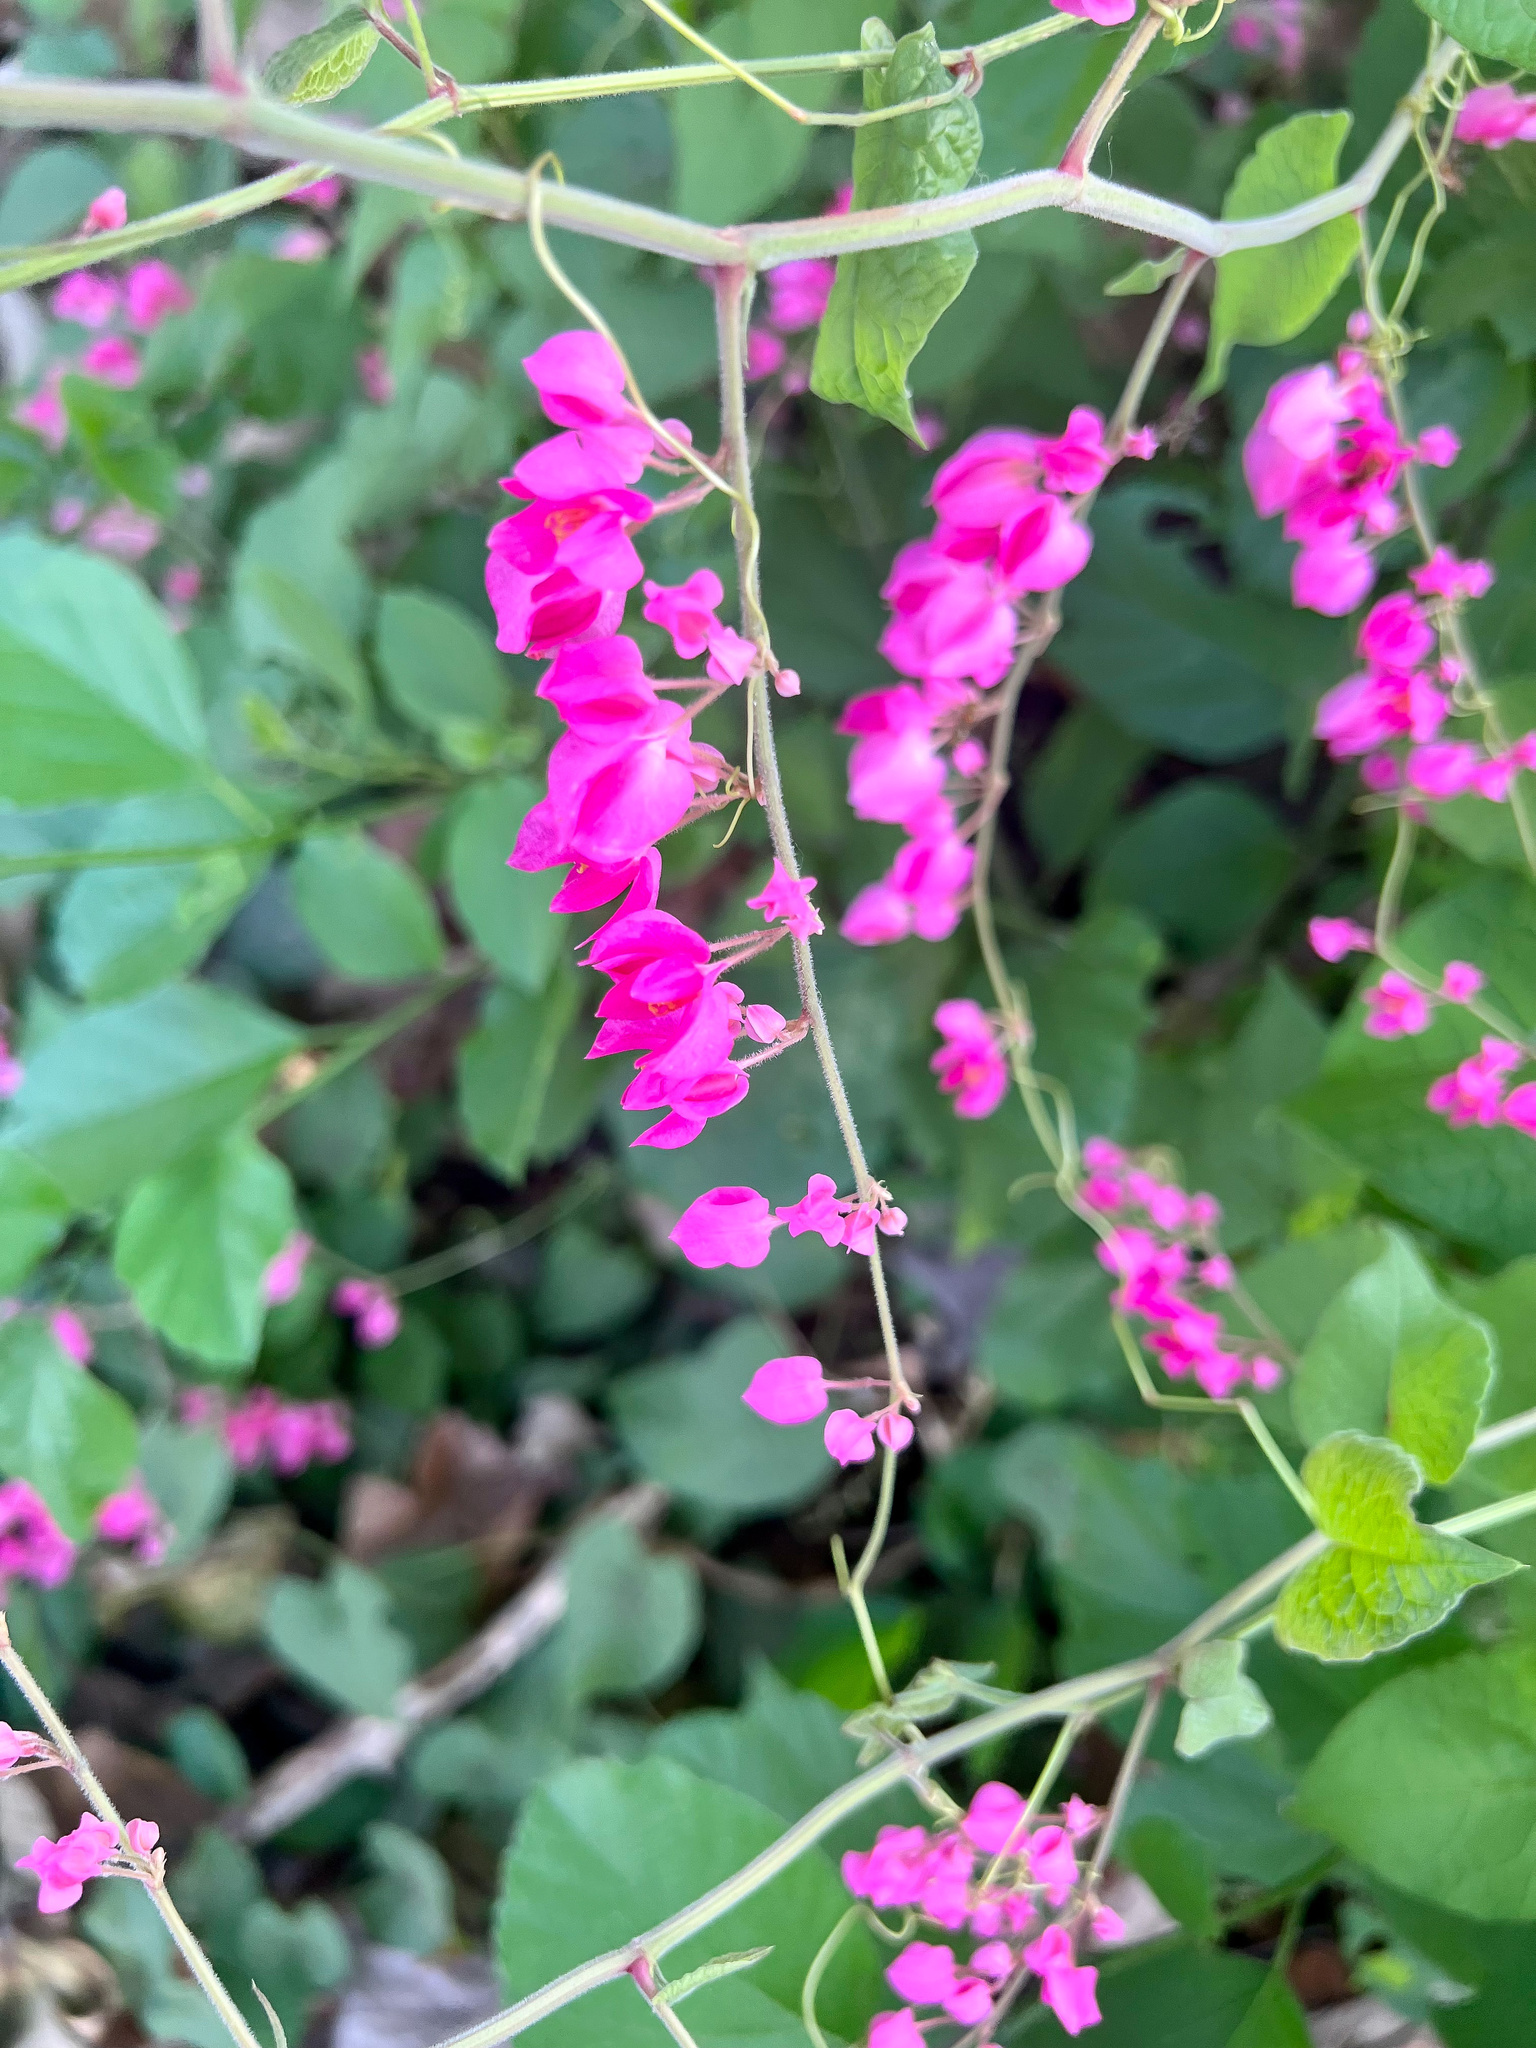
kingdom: Plantae
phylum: Tracheophyta
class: Magnoliopsida
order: Caryophyllales
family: Polygonaceae
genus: Antigonon
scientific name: Antigonon leptopus
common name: Coral vine
